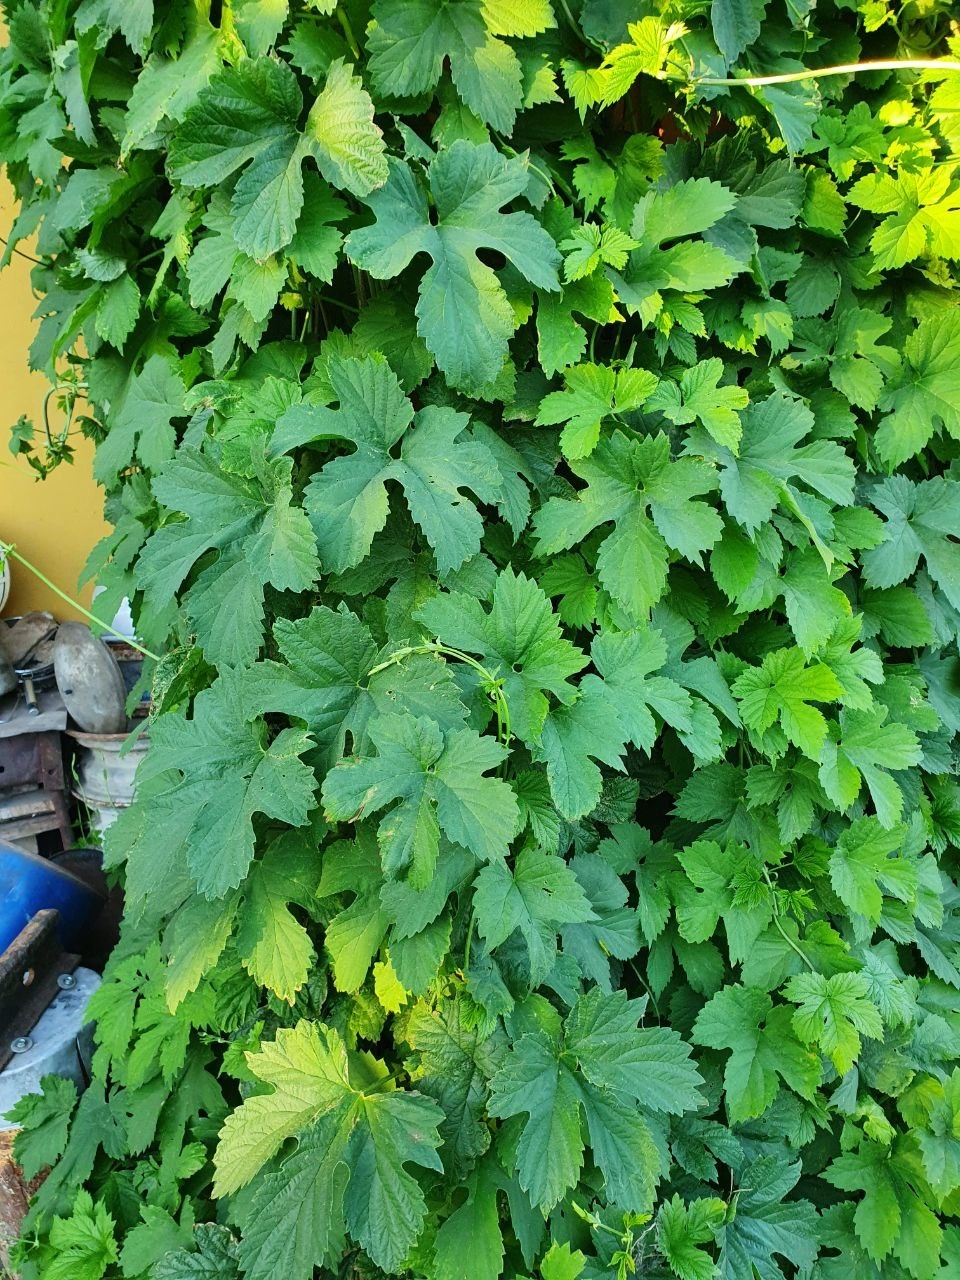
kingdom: Plantae
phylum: Tracheophyta
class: Magnoliopsida
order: Rosales
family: Cannabaceae
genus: Humulus
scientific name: Humulus lupulus
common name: Hop
